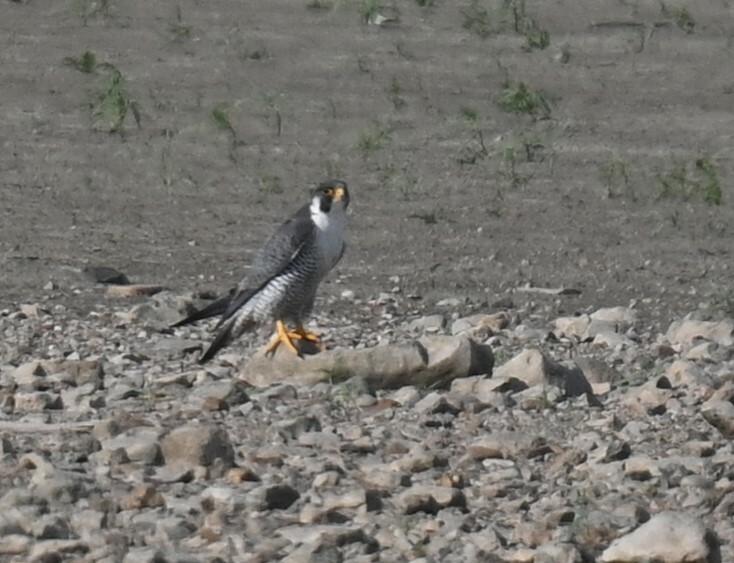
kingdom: Animalia
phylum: Chordata
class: Aves
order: Falconiformes
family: Falconidae
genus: Falco
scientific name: Falco peregrinus
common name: Peregrine falcon
